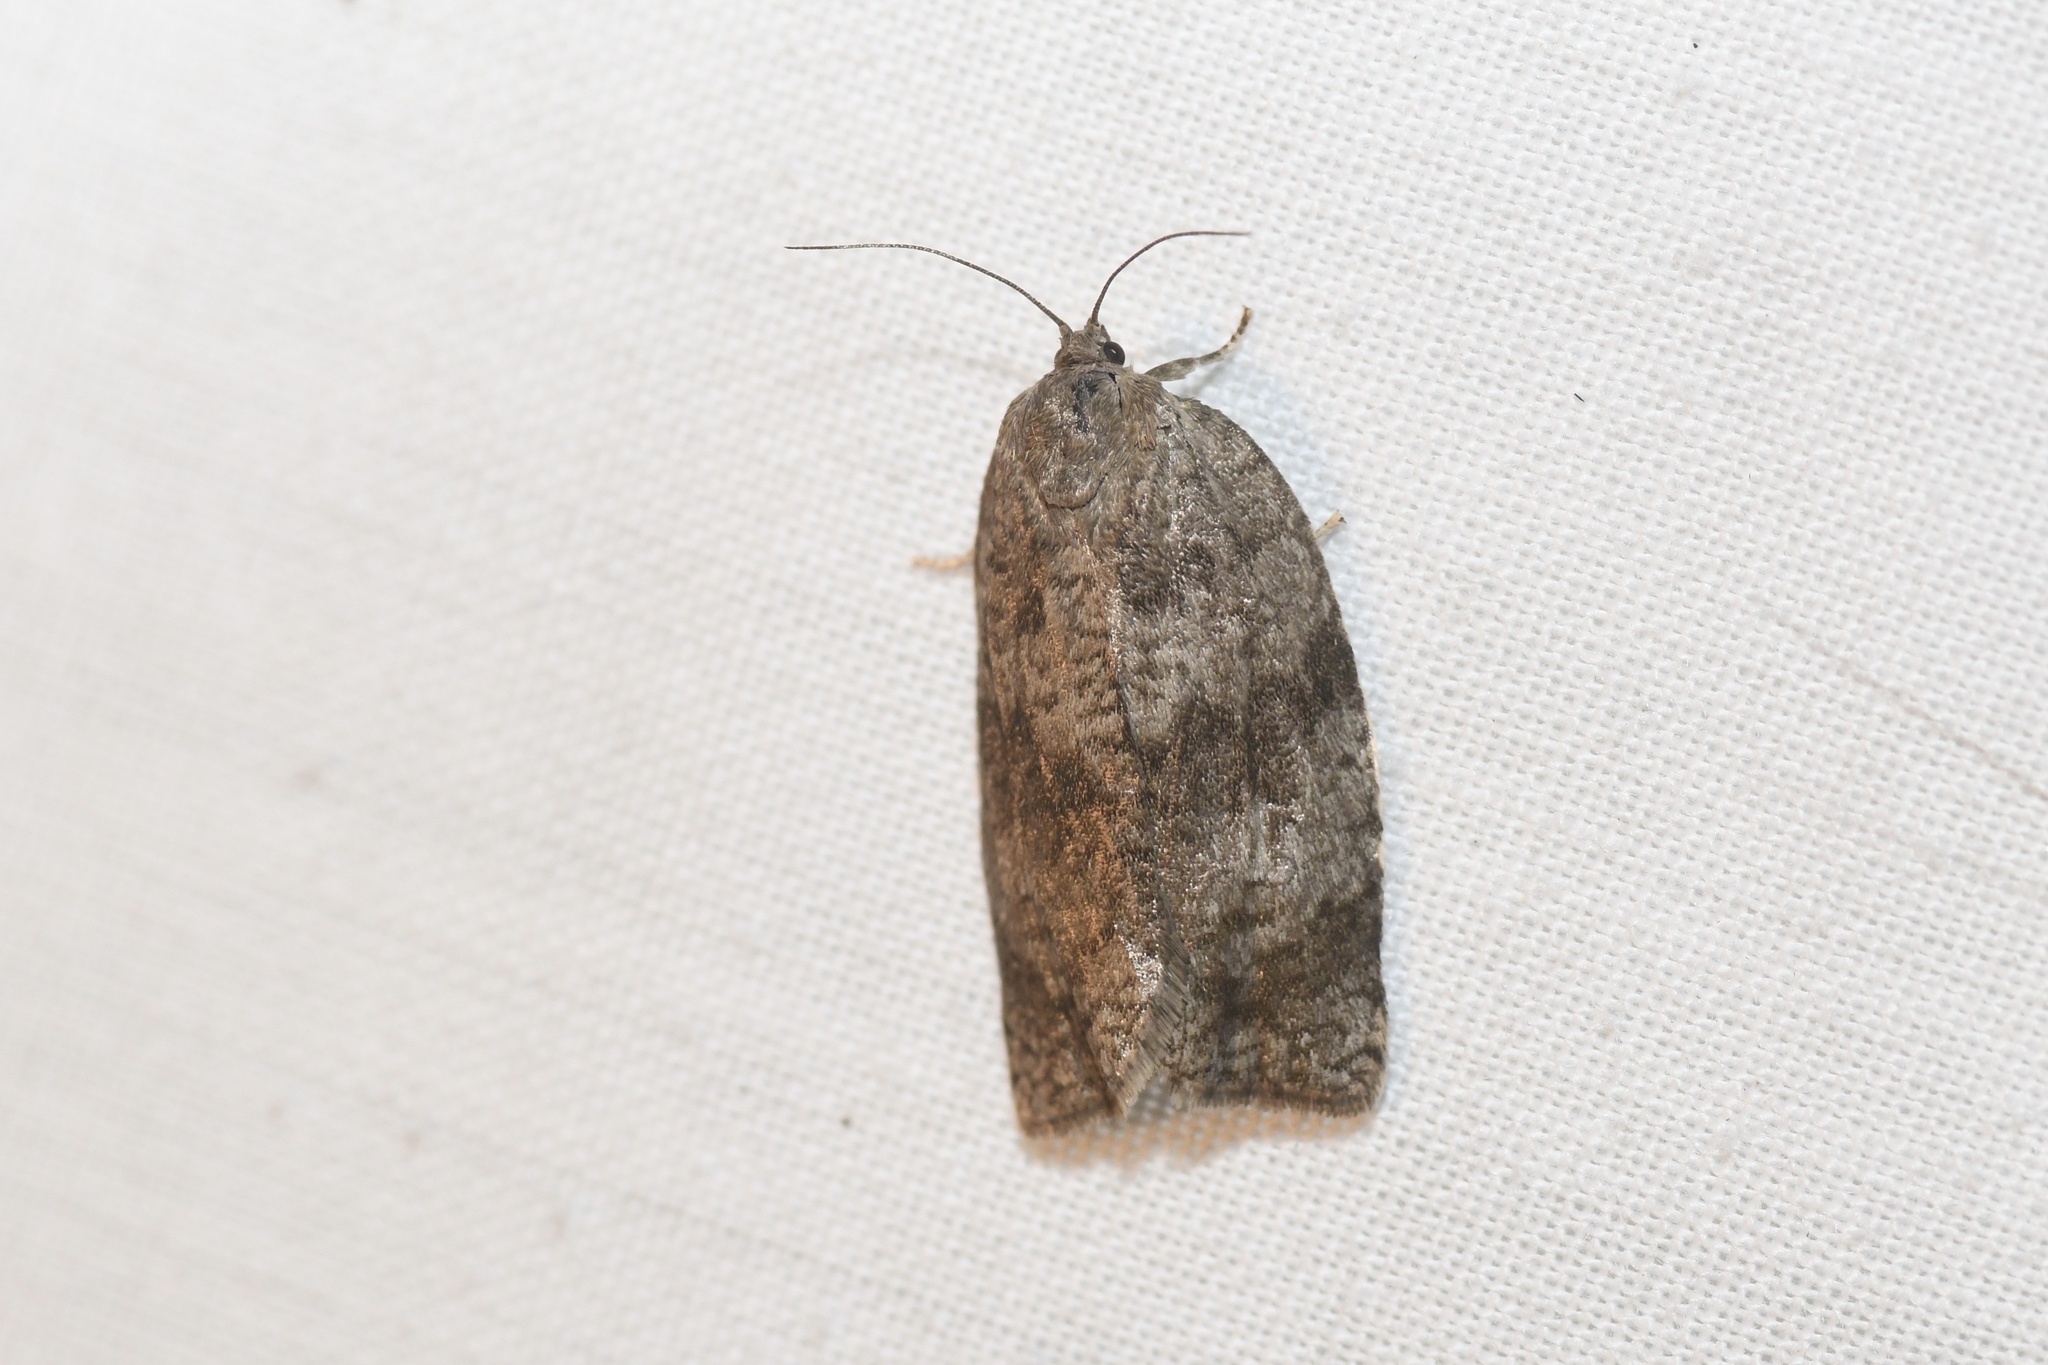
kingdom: Animalia
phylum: Arthropoda
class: Insecta
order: Lepidoptera
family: Tortricidae
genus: Choristoneura
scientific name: Choristoneura conflictana
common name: Large aspen tortrix
